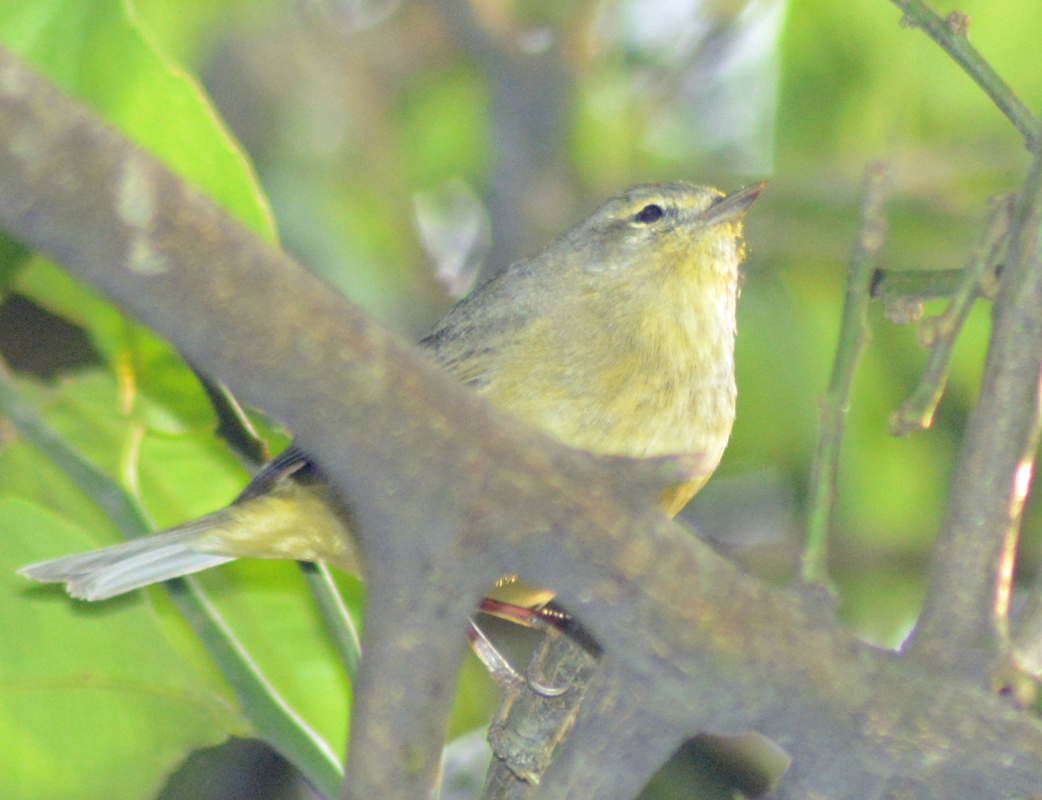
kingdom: Animalia
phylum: Chordata
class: Aves
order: Passeriformes
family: Parulidae
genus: Leiothlypis
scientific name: Leiothlypis celata
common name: Orange-crowned warbler
